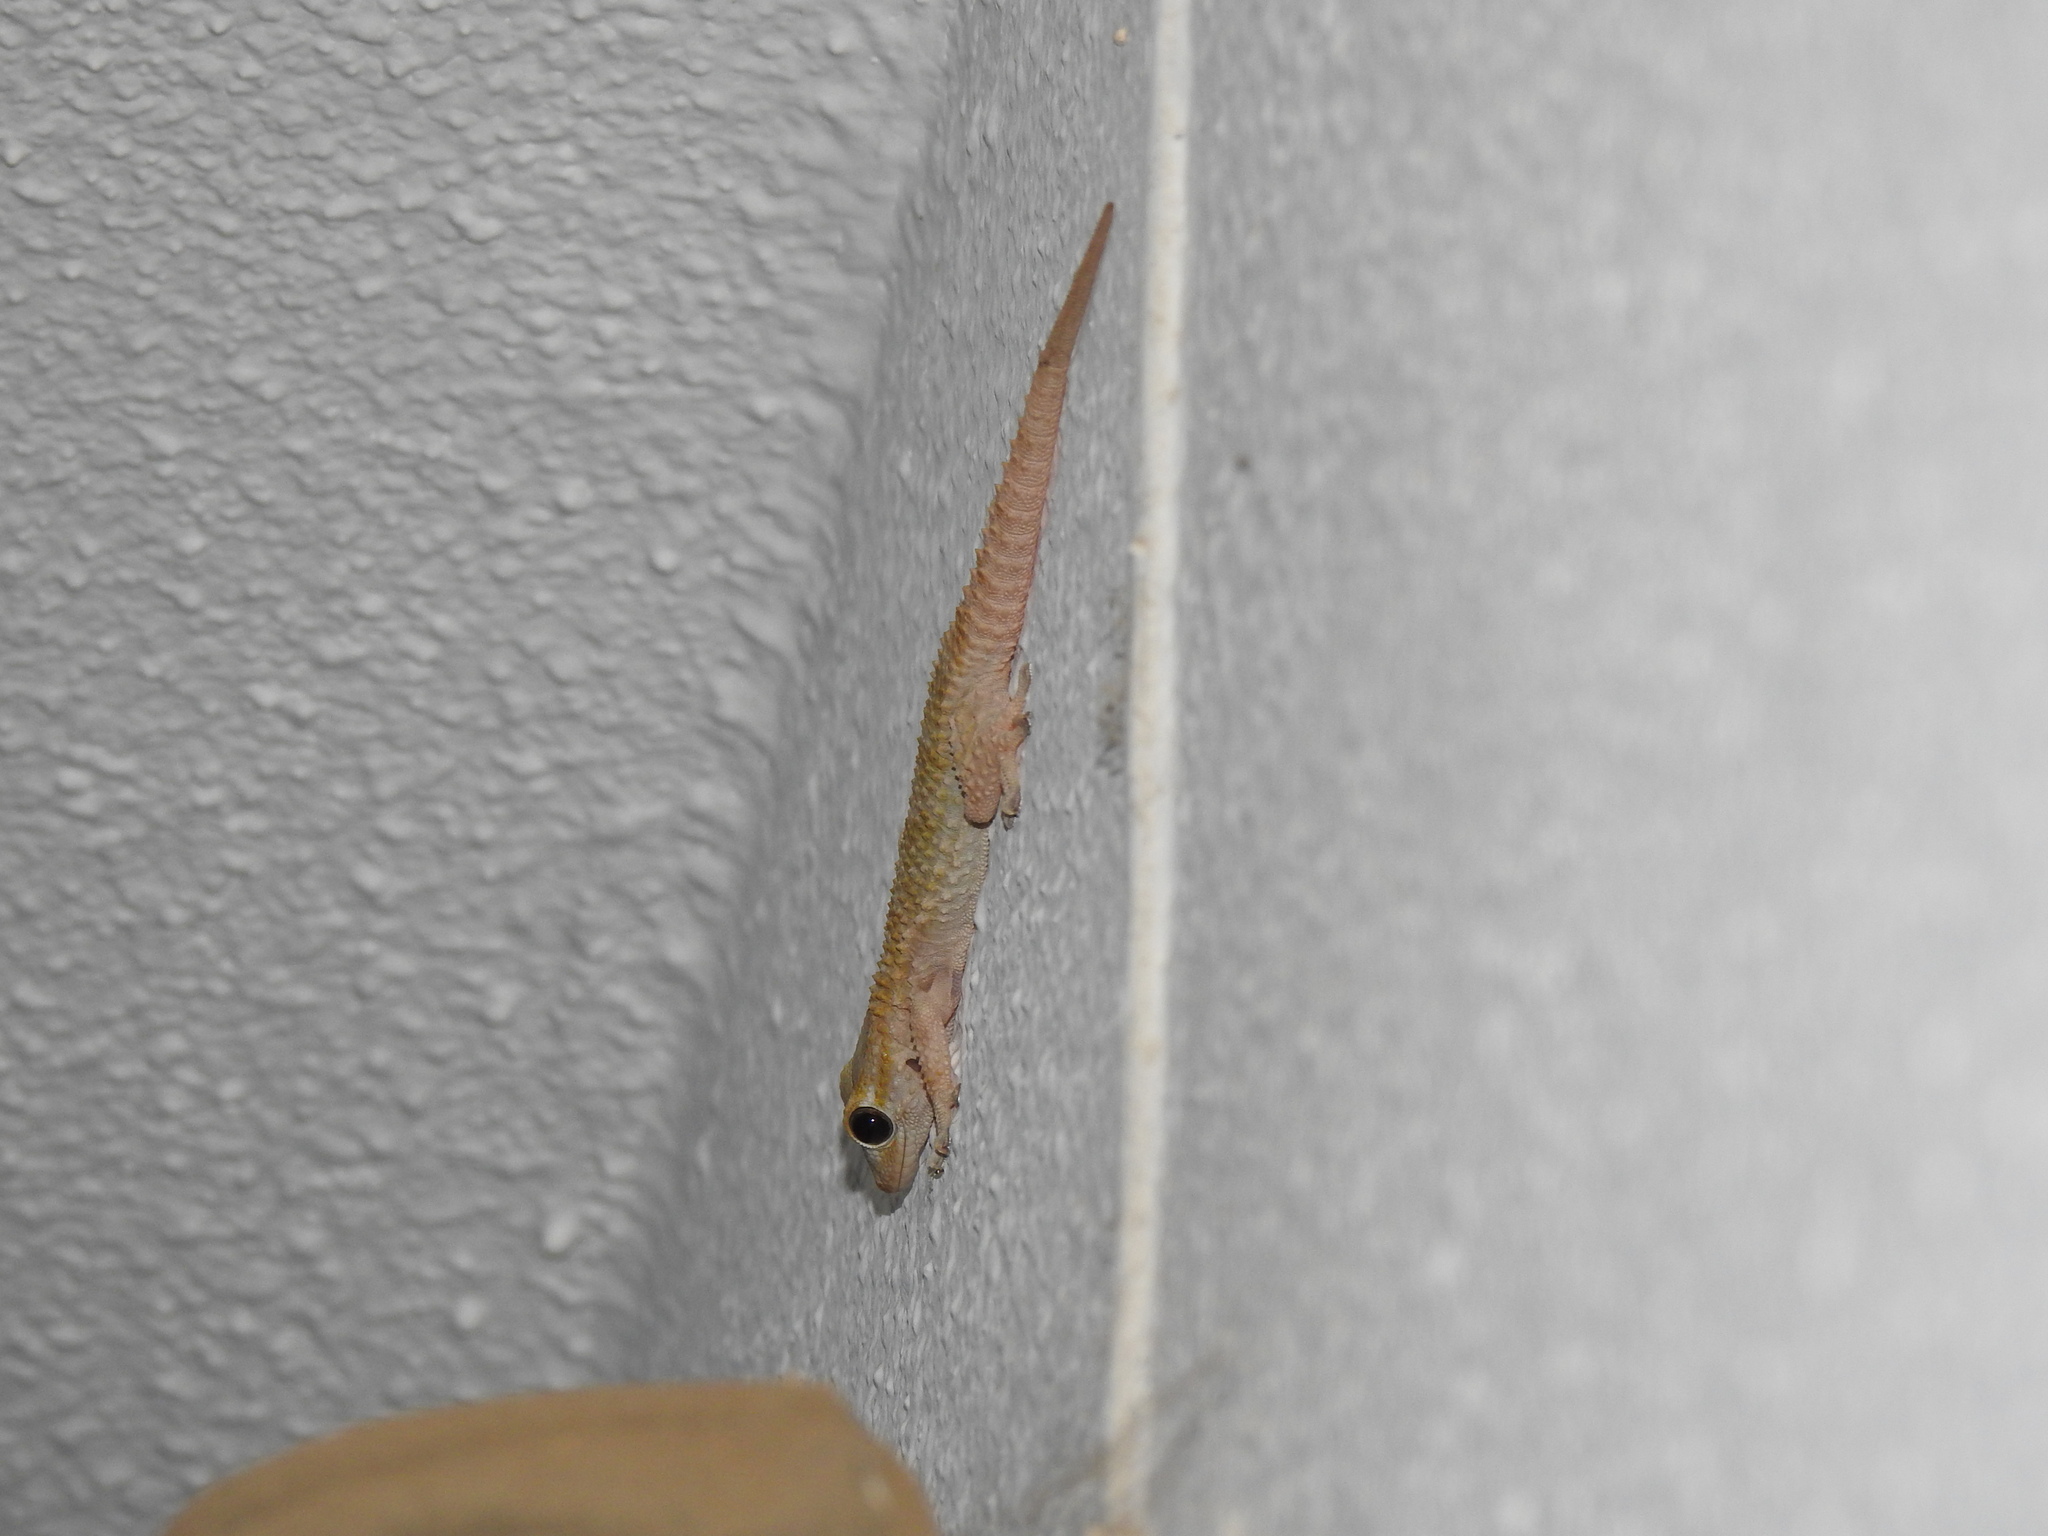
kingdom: Animalia
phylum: Chordata
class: Squamata
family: Phyllodactylidae
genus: Tarentola
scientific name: Tarentola mauritanica
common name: Moorish gecko
